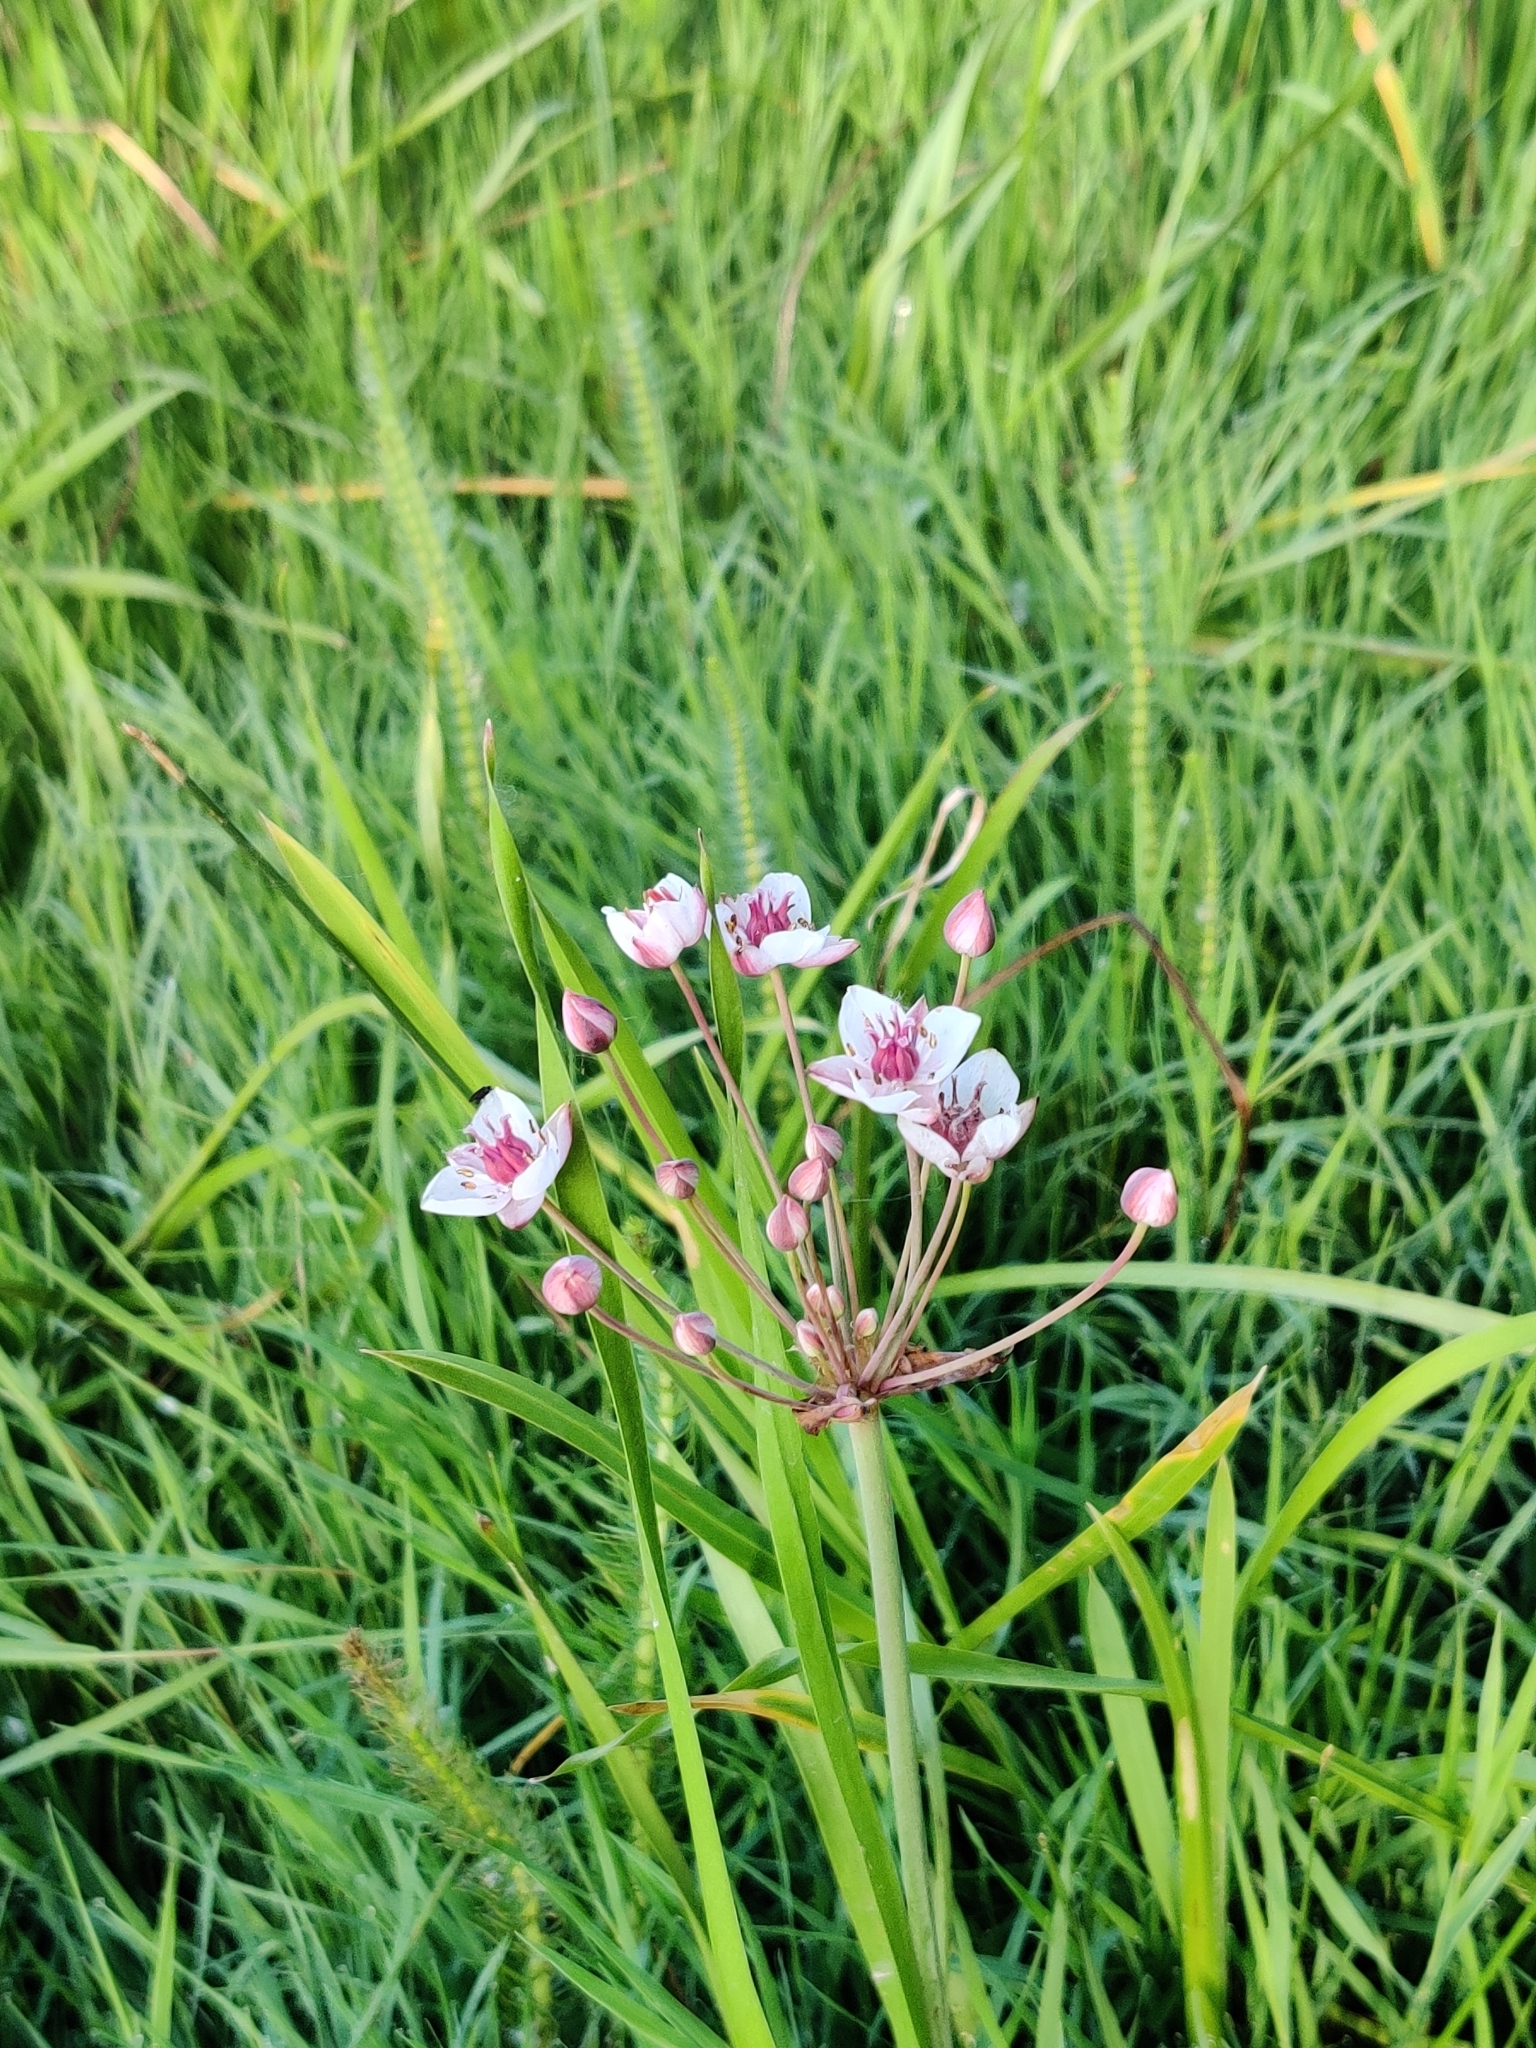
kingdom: Plantae
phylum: Tracheophyta
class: Liliopsida
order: Alismatales
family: Butomaceae
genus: Butomus
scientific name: Butomus umbellatus
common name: Flowering-rush
